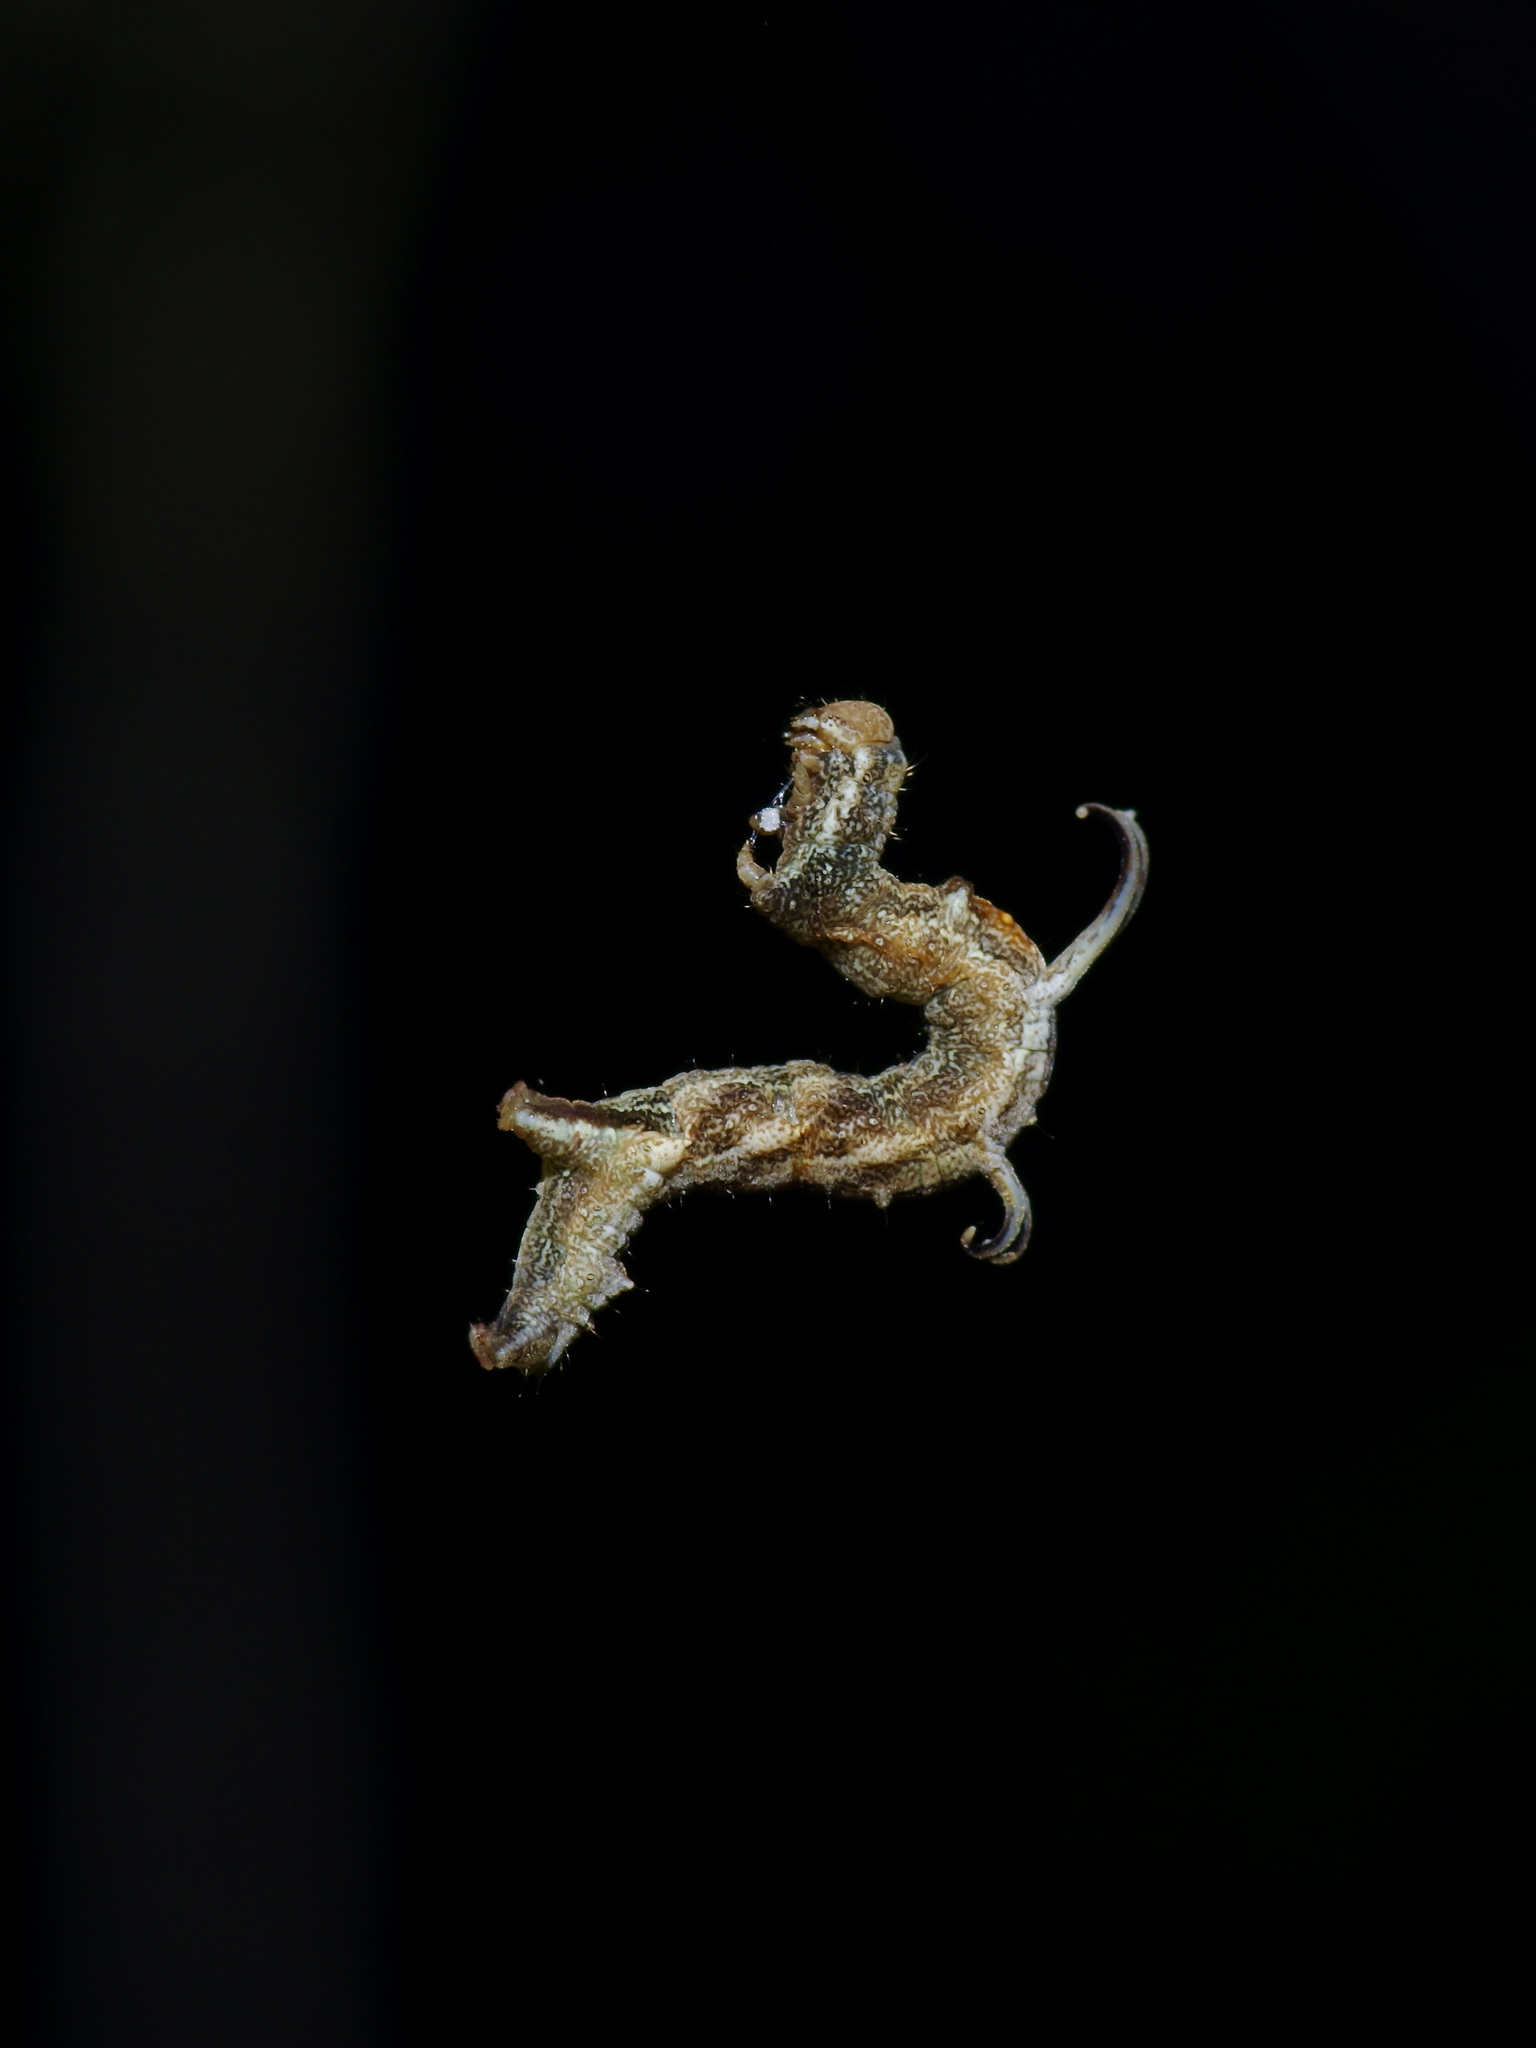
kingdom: Animalia
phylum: Arthropoda
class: Insecta
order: Lepidoptera
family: Geometridae
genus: Nematocampa
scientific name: Nematocampa resistaria
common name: Horned spanworm moth
